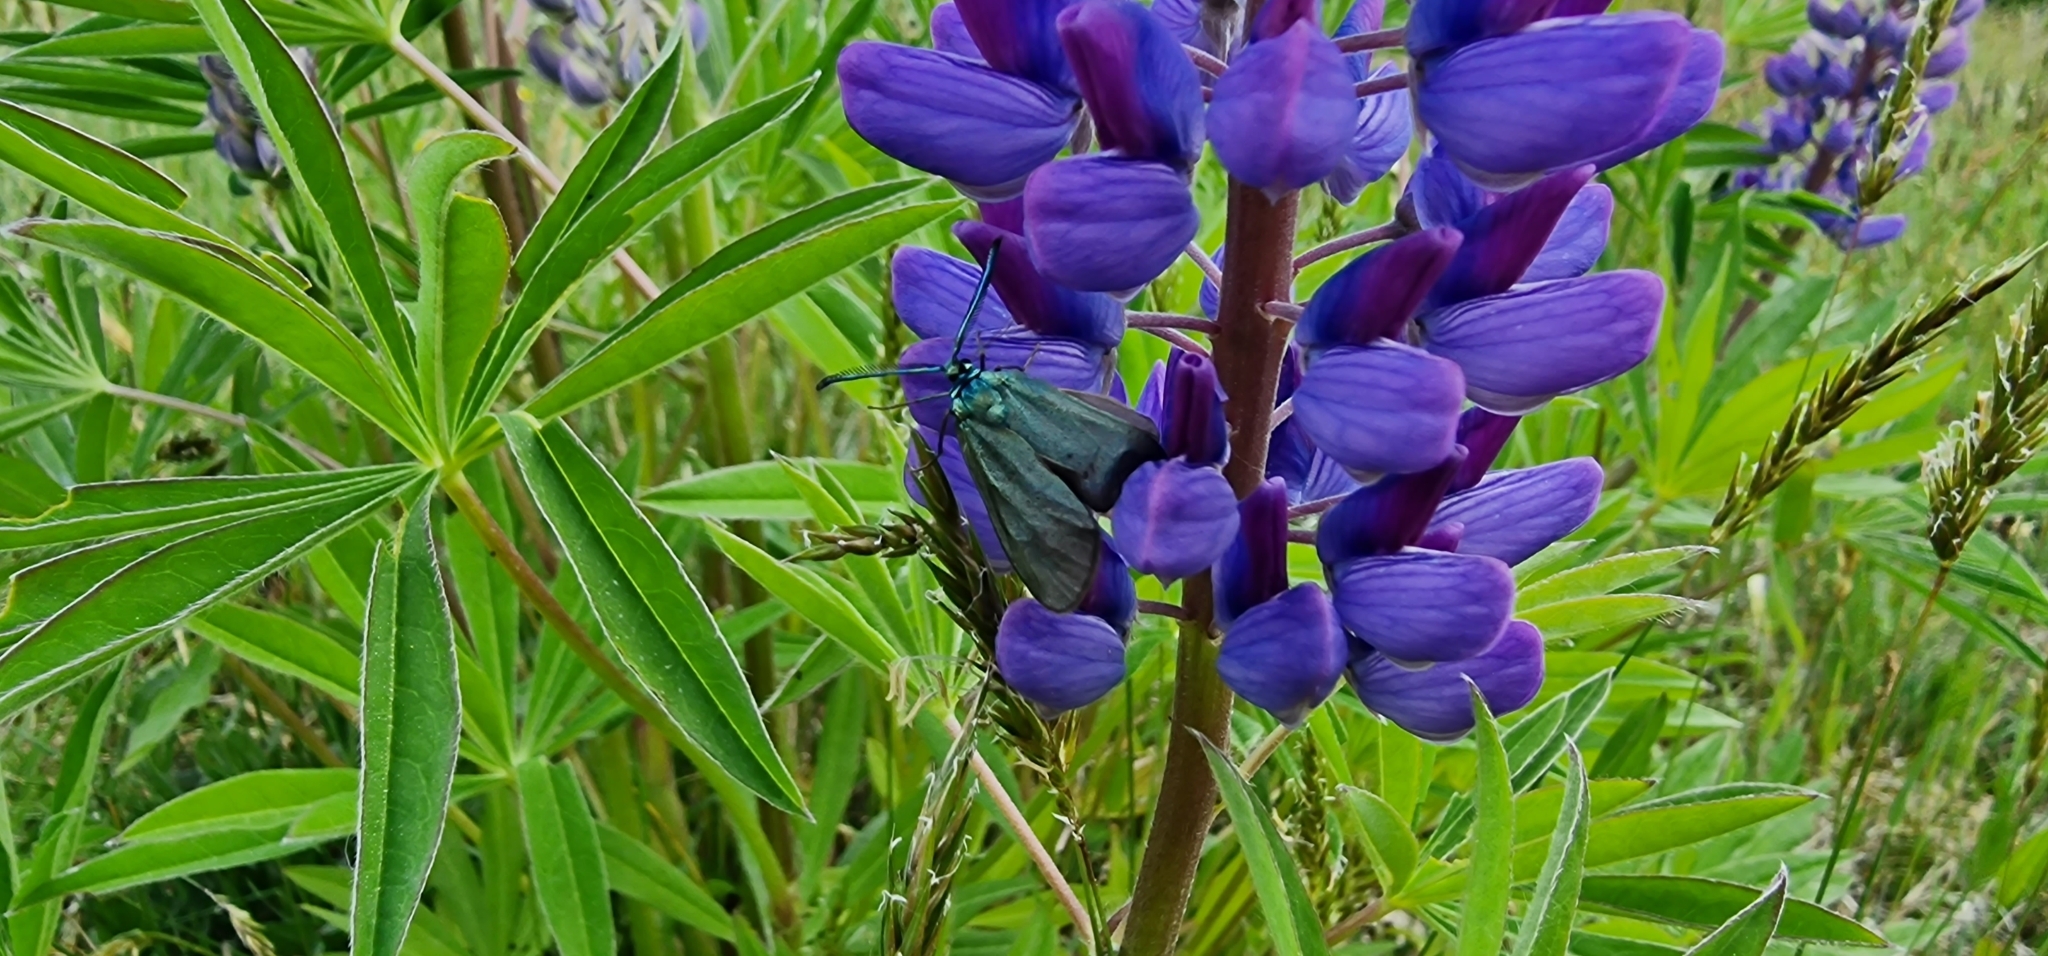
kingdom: Animalia
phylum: Arthropoda
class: Insecta
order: Lepidoptera
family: Zygaenidae
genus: Adscita
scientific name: Adscita statices
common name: Forester
